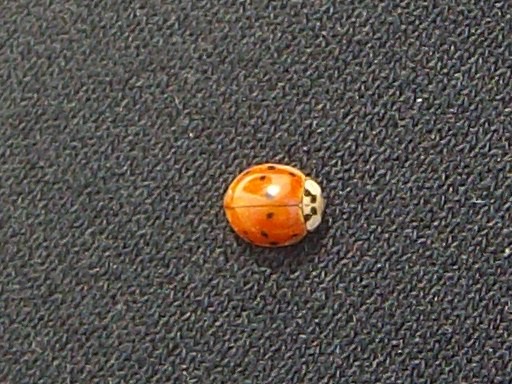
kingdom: Animalia
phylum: Arthropoda
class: Insecta
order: Coleoptera
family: Coccinellidae
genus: Harmonia
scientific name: Harmonia axyridis
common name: Harlequin ladybird
